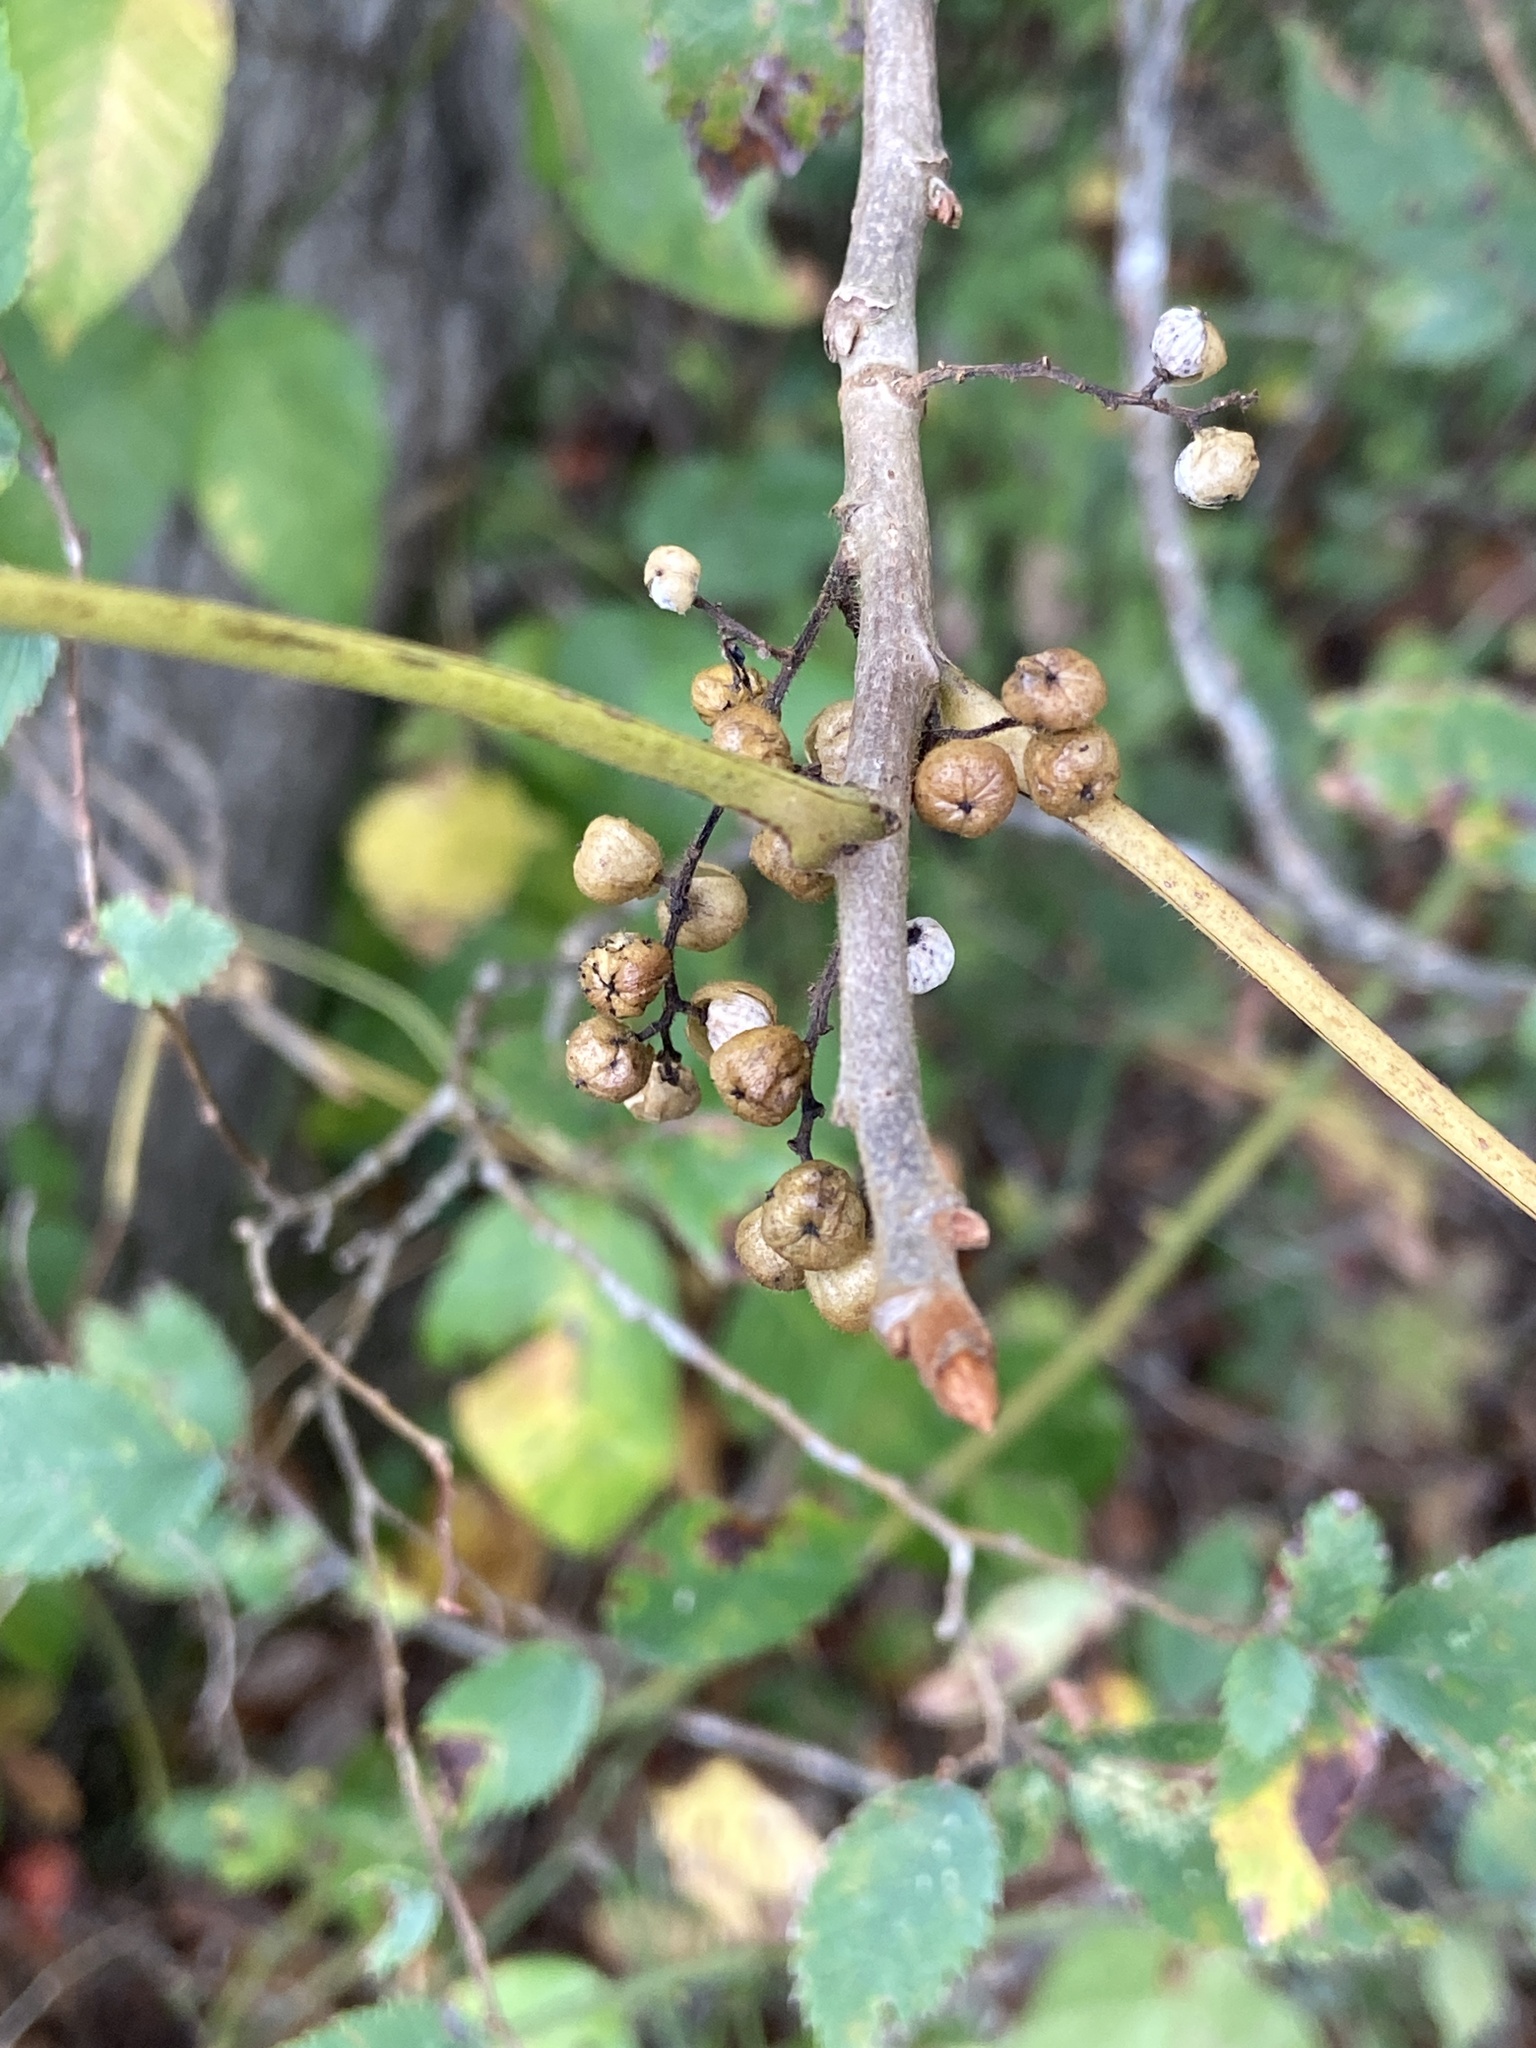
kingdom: Plantae
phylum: Tracheophyta
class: Magnoliopsida
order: Sapindales
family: Anacardiaceae
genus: Toxicodendron
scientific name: Toxicodendron radicans
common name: Poison ivy
